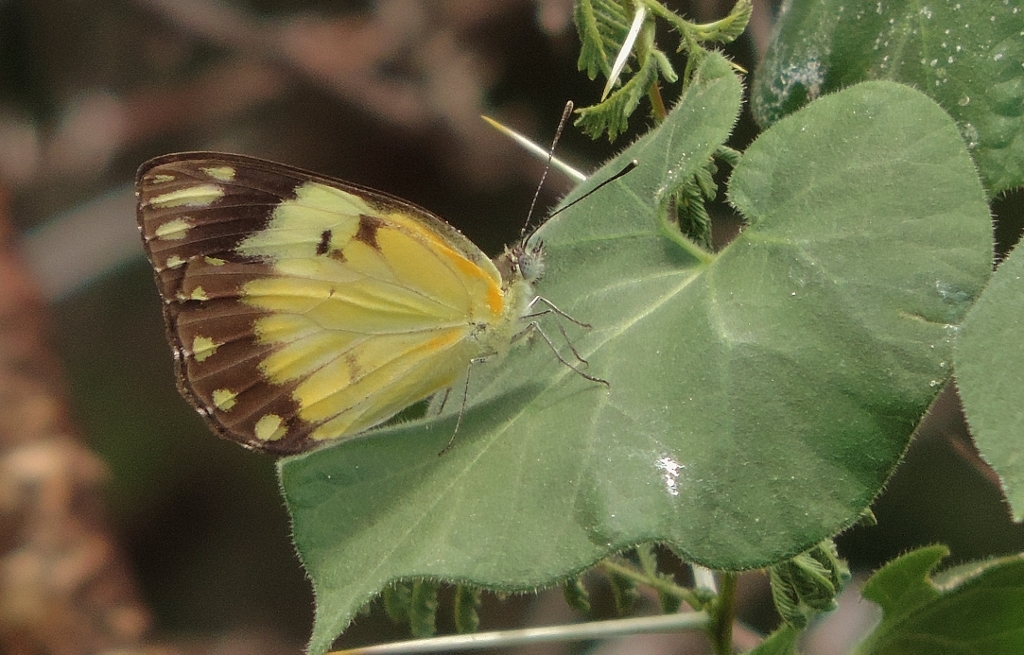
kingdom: Animalia
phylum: Arthropoda
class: Insecta
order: Lepidoptera
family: Pieridae
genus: Belenois
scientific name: Belenois creona
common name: African caper white
